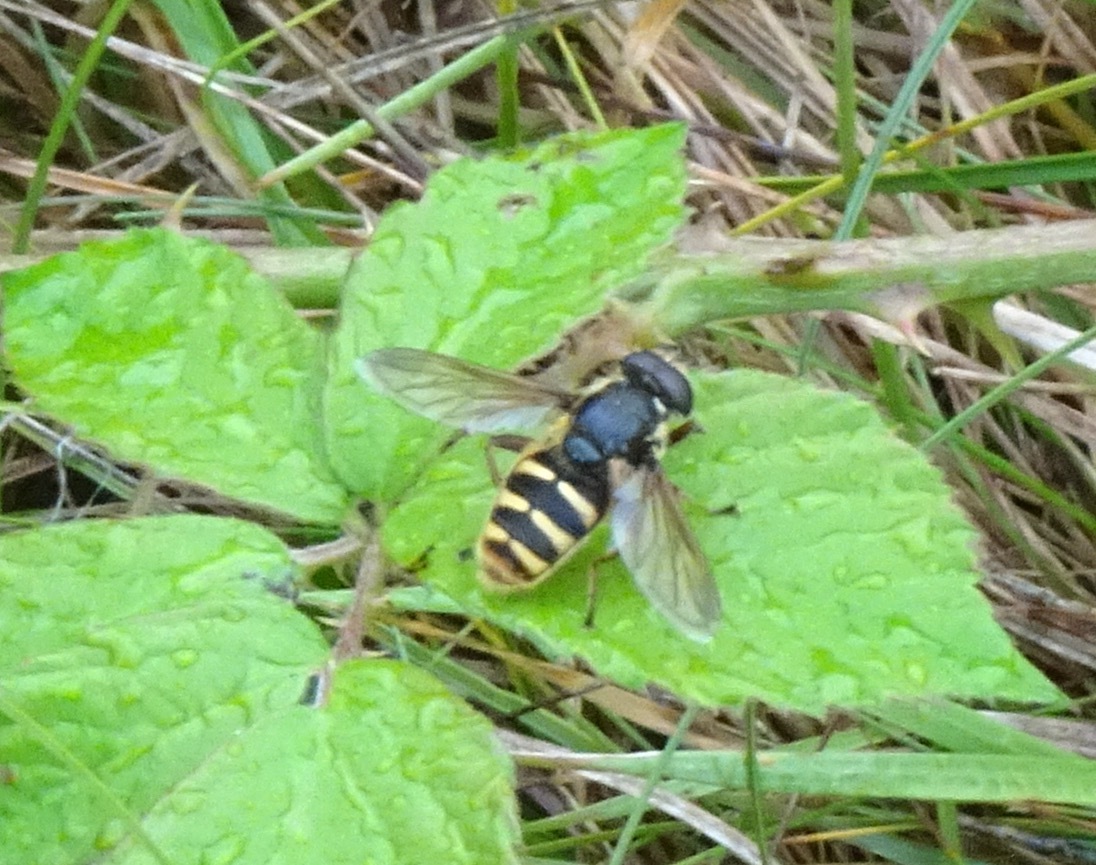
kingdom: Animalia
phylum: Arthropoda
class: Insecta
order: Diptera
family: Syrphidae
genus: Sericomyia
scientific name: Sericomyia silentis
